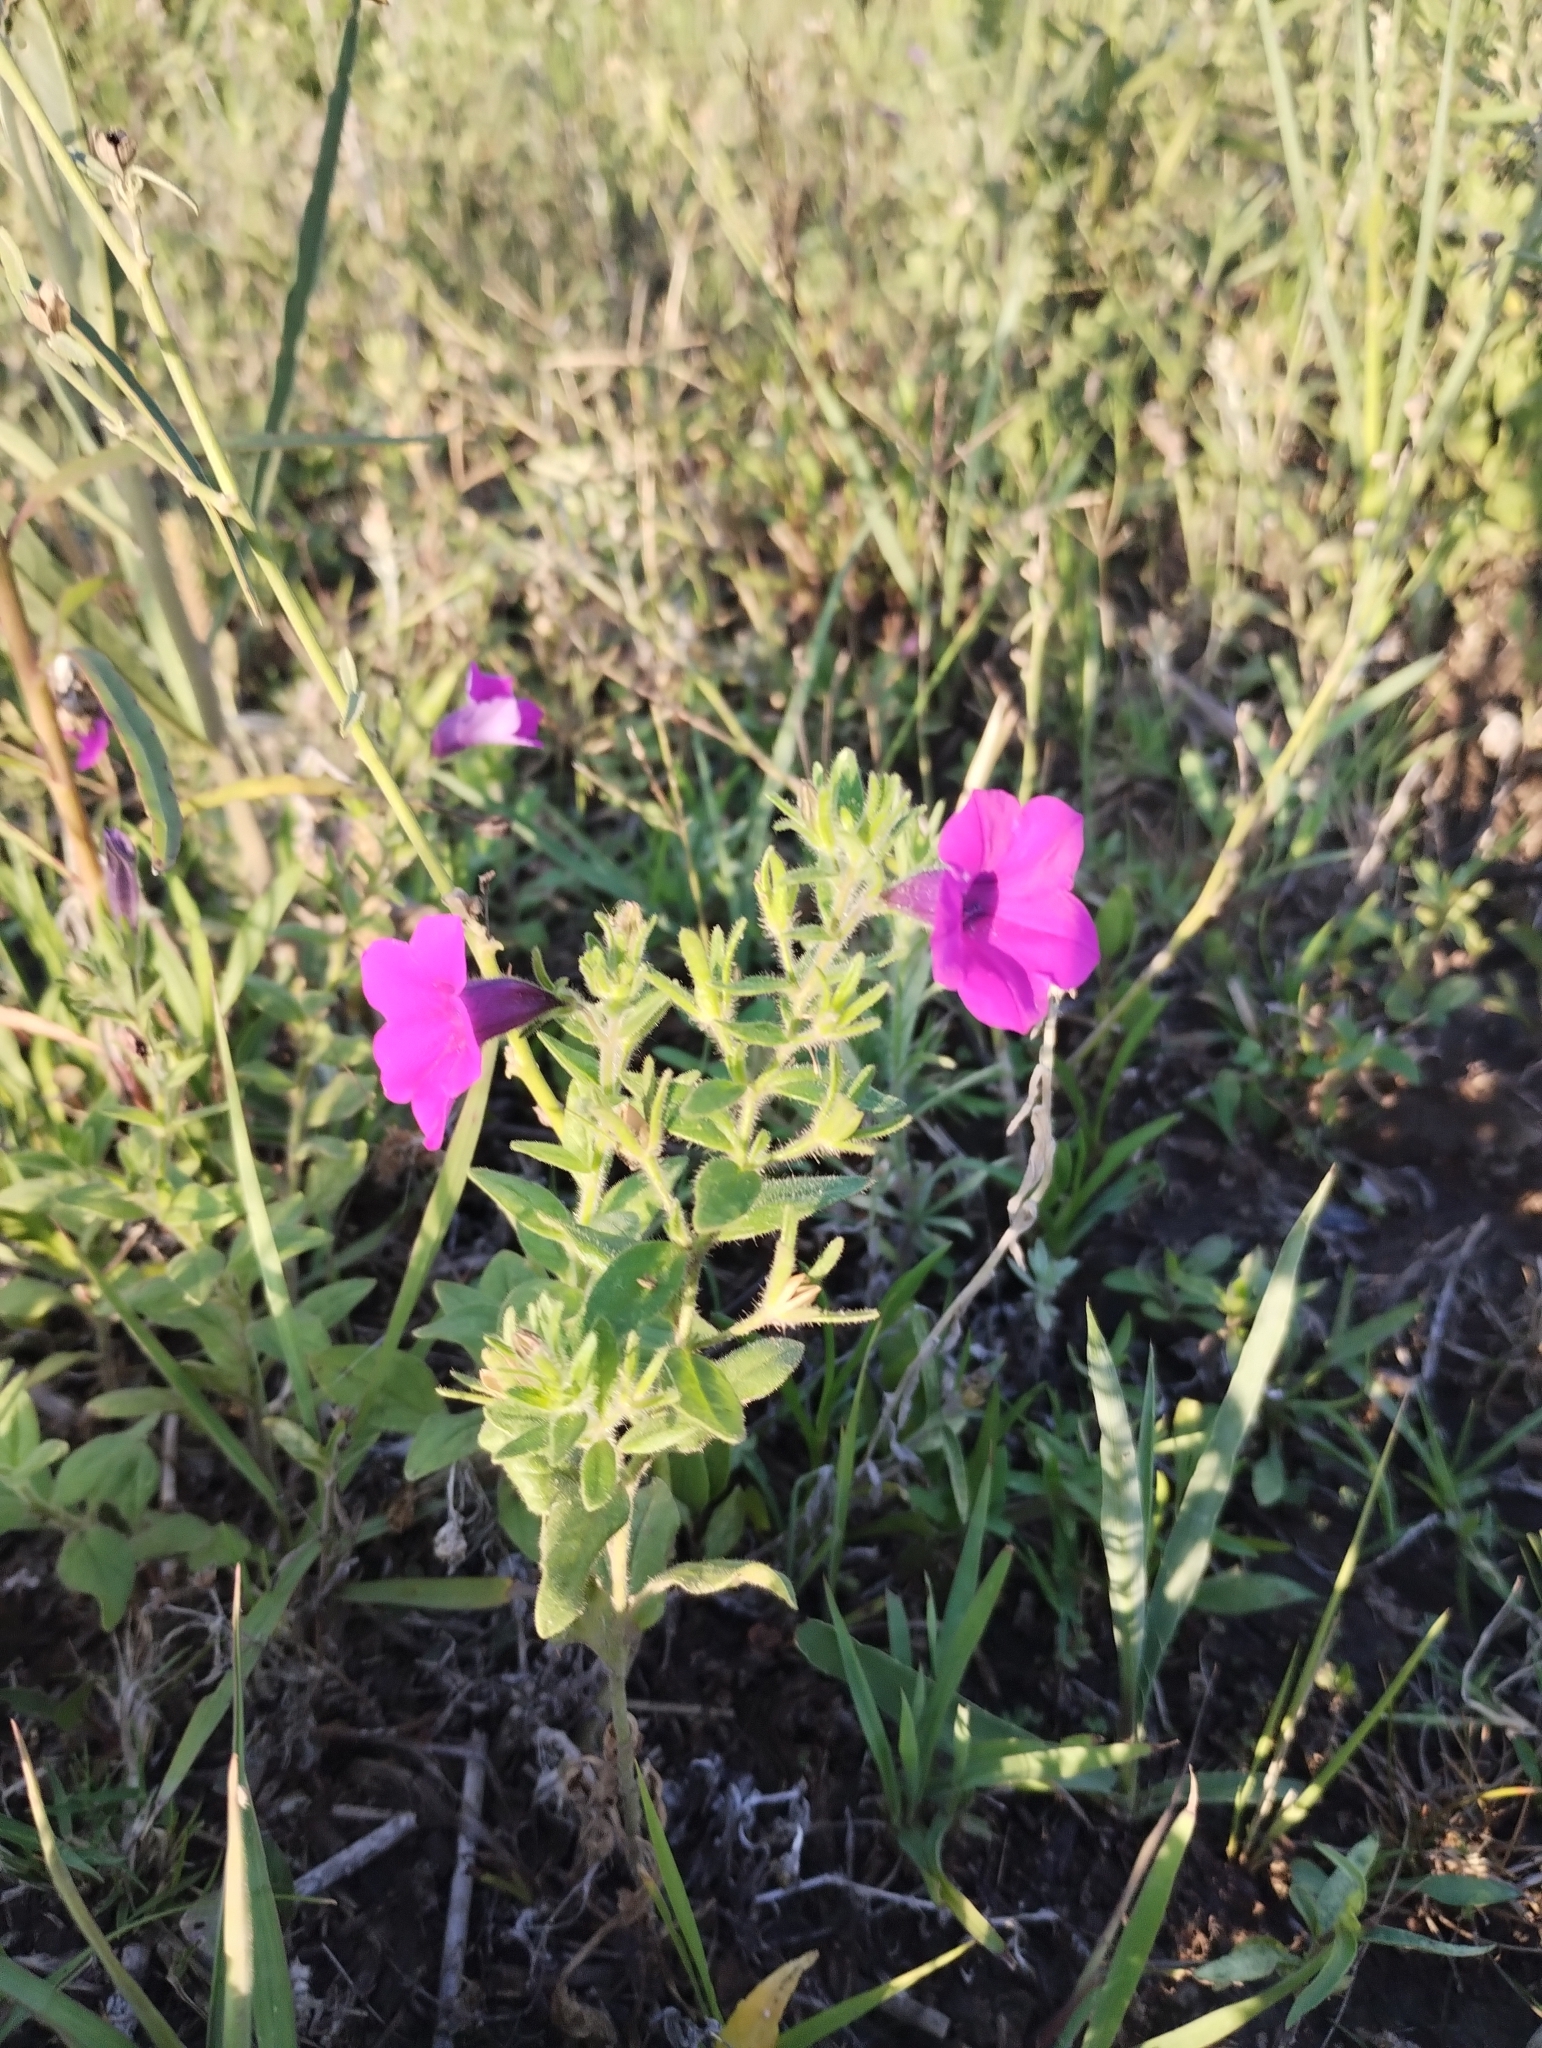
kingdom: Plantae
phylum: Tracheophyta
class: Magnoliopsida
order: Solanales
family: Solanaceae
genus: Petunia
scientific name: Petunia integrifolia
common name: Violet-flower petunia
